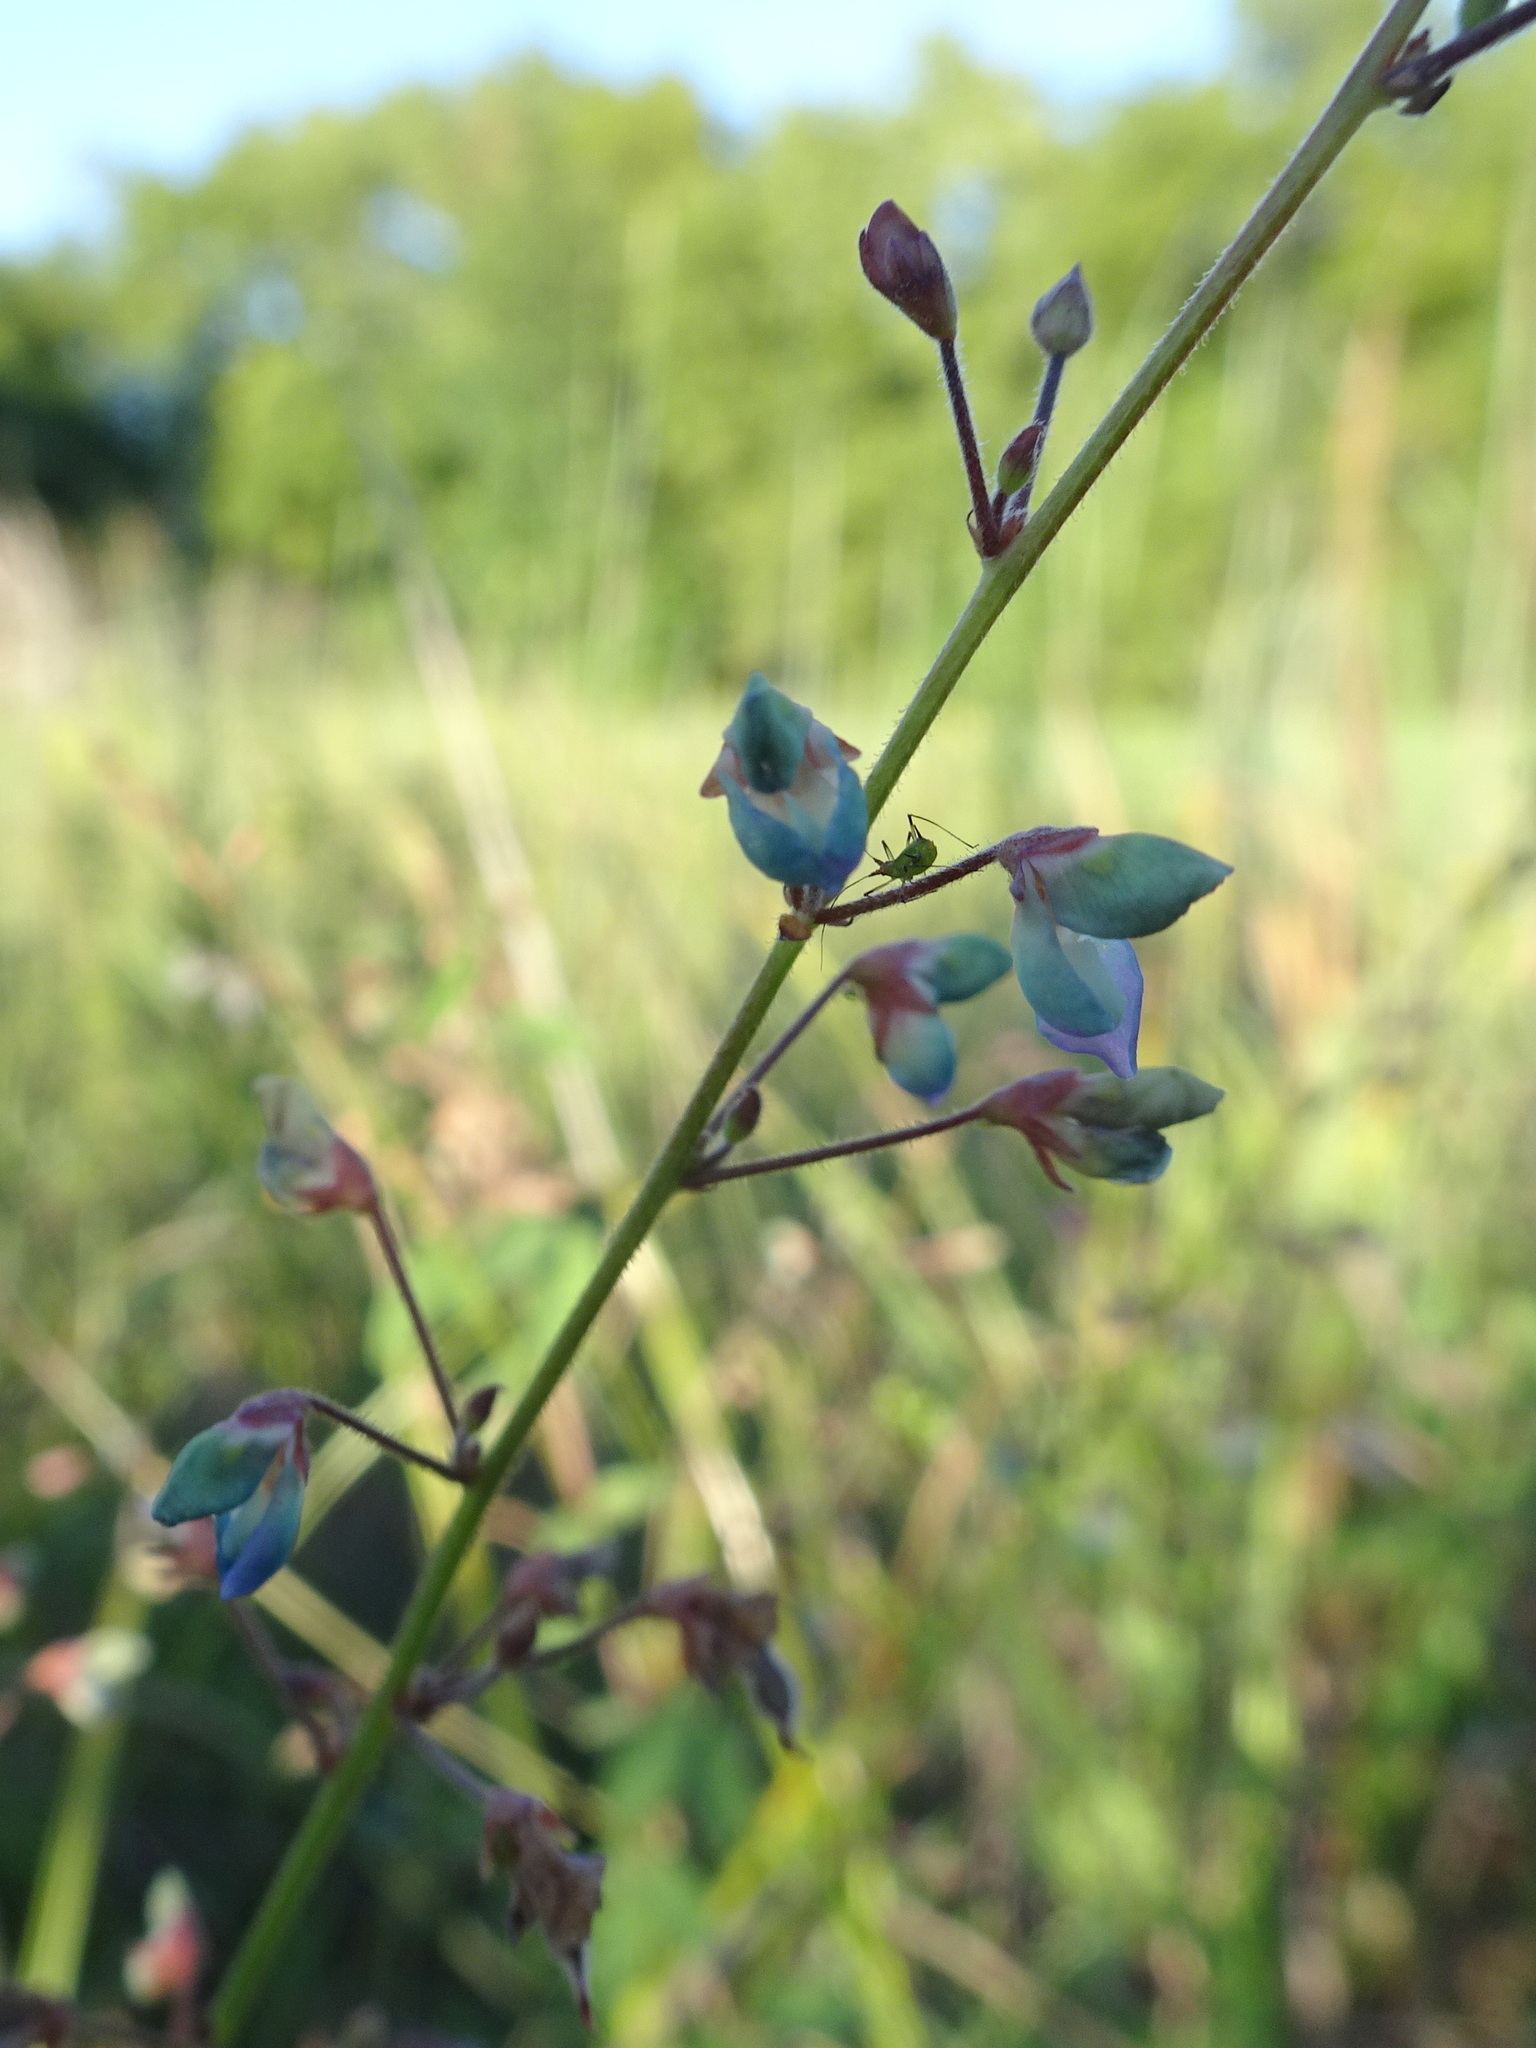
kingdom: Plantae
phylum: Tracheophyta
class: Magnoliopsida
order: Fabales
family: Fabaceae
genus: Desmodium
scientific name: Desmodium ciliare
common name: Hairy small-leaf ticktrefoil
